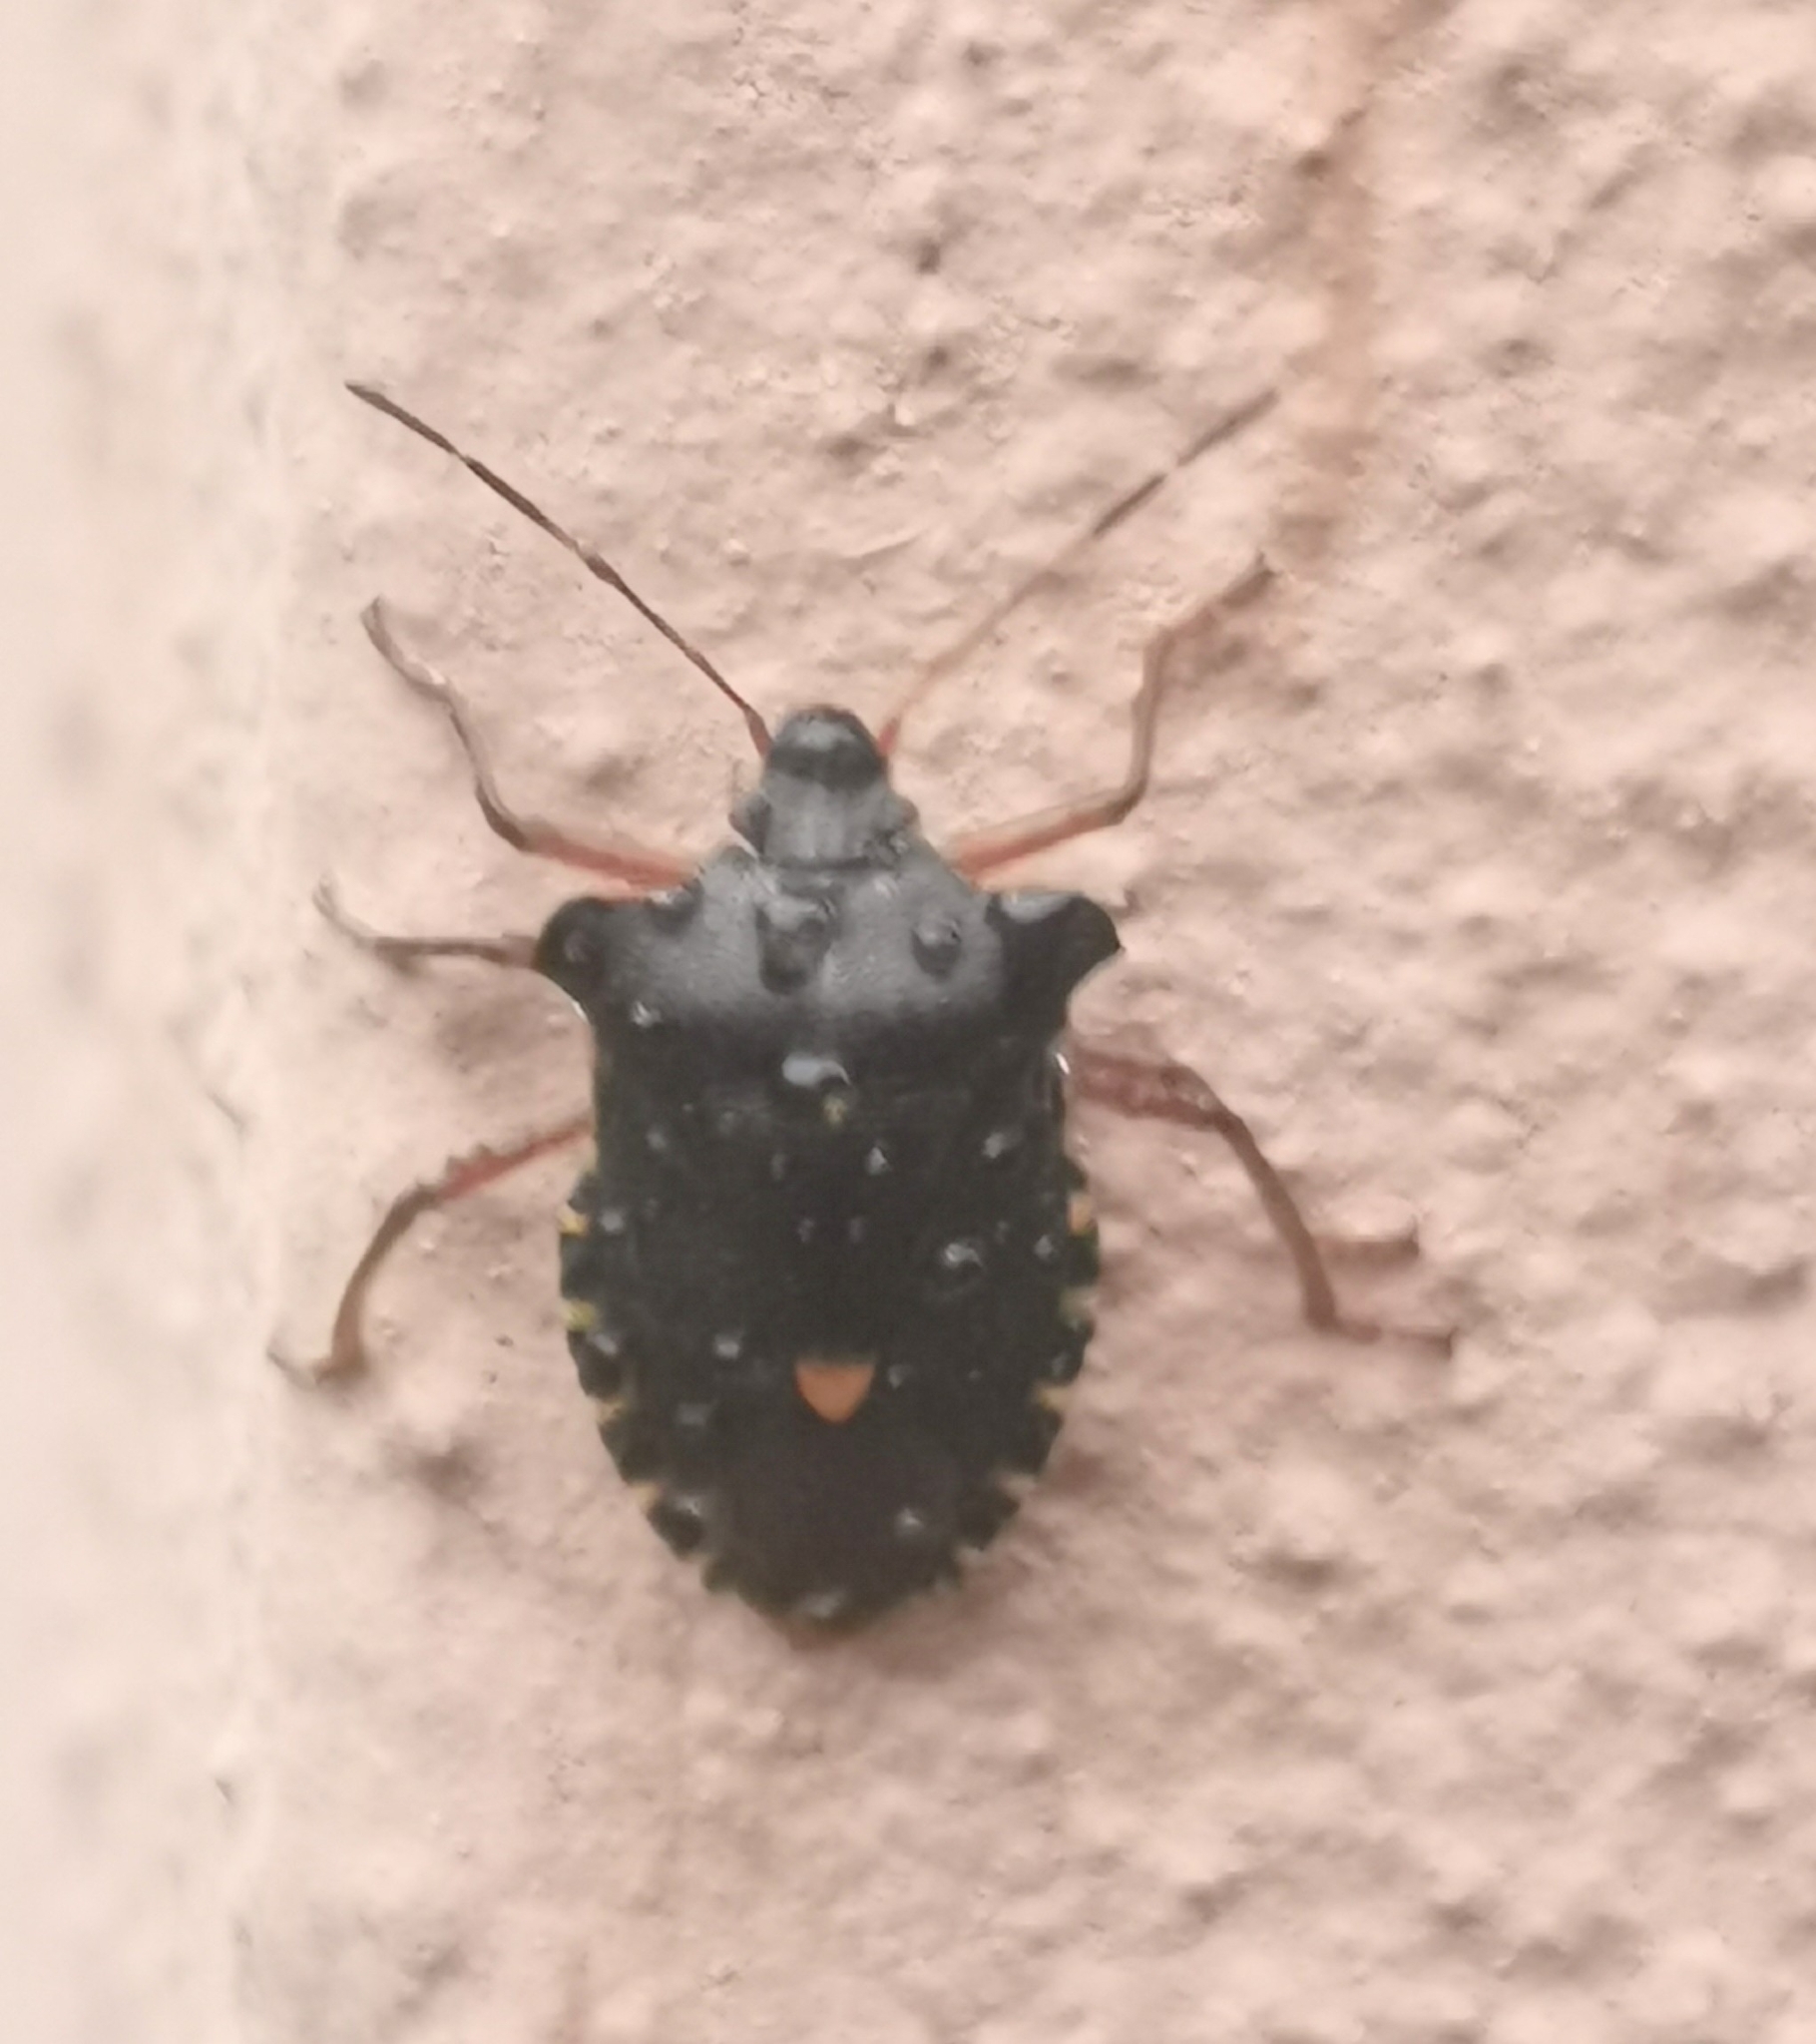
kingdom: Animalia
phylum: Arthropoda
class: Insecta
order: Hemiptera
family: Pentatomidae
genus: Pentatoma
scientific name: Pentatoma rufipes
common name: Forest bug
